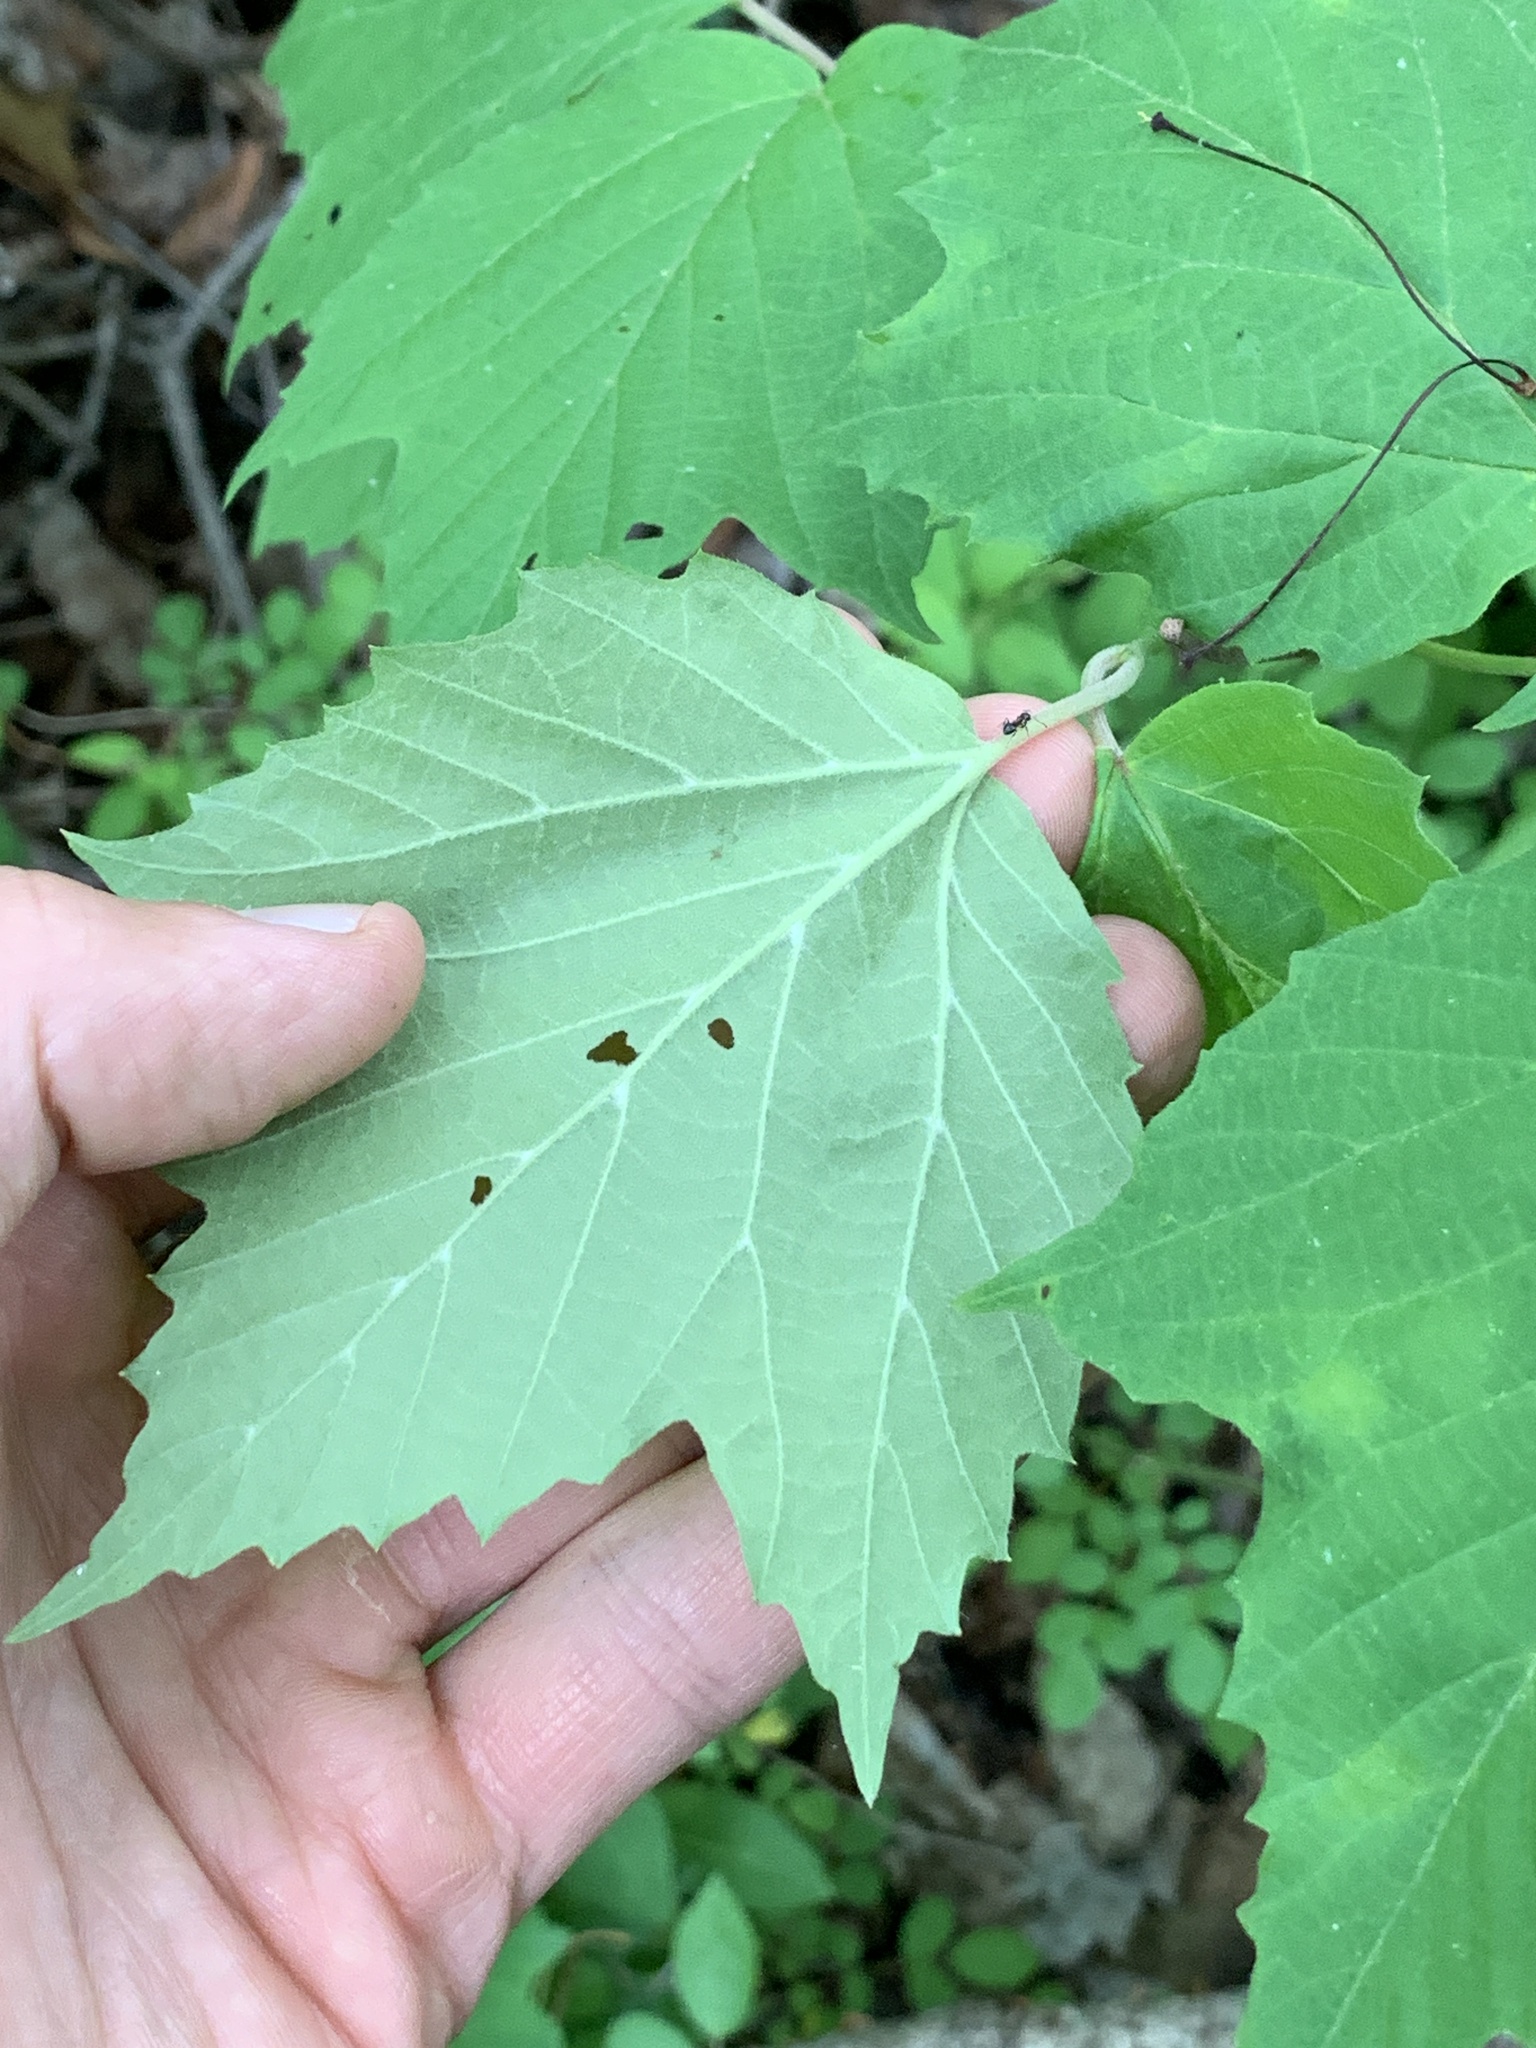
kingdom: Plantae
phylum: Tracheophyta
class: Magnoliopsida
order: Dipsacales
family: Viburnaceae
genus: Viburnum
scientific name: Viburnum acerifolium
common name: Dockmackie
